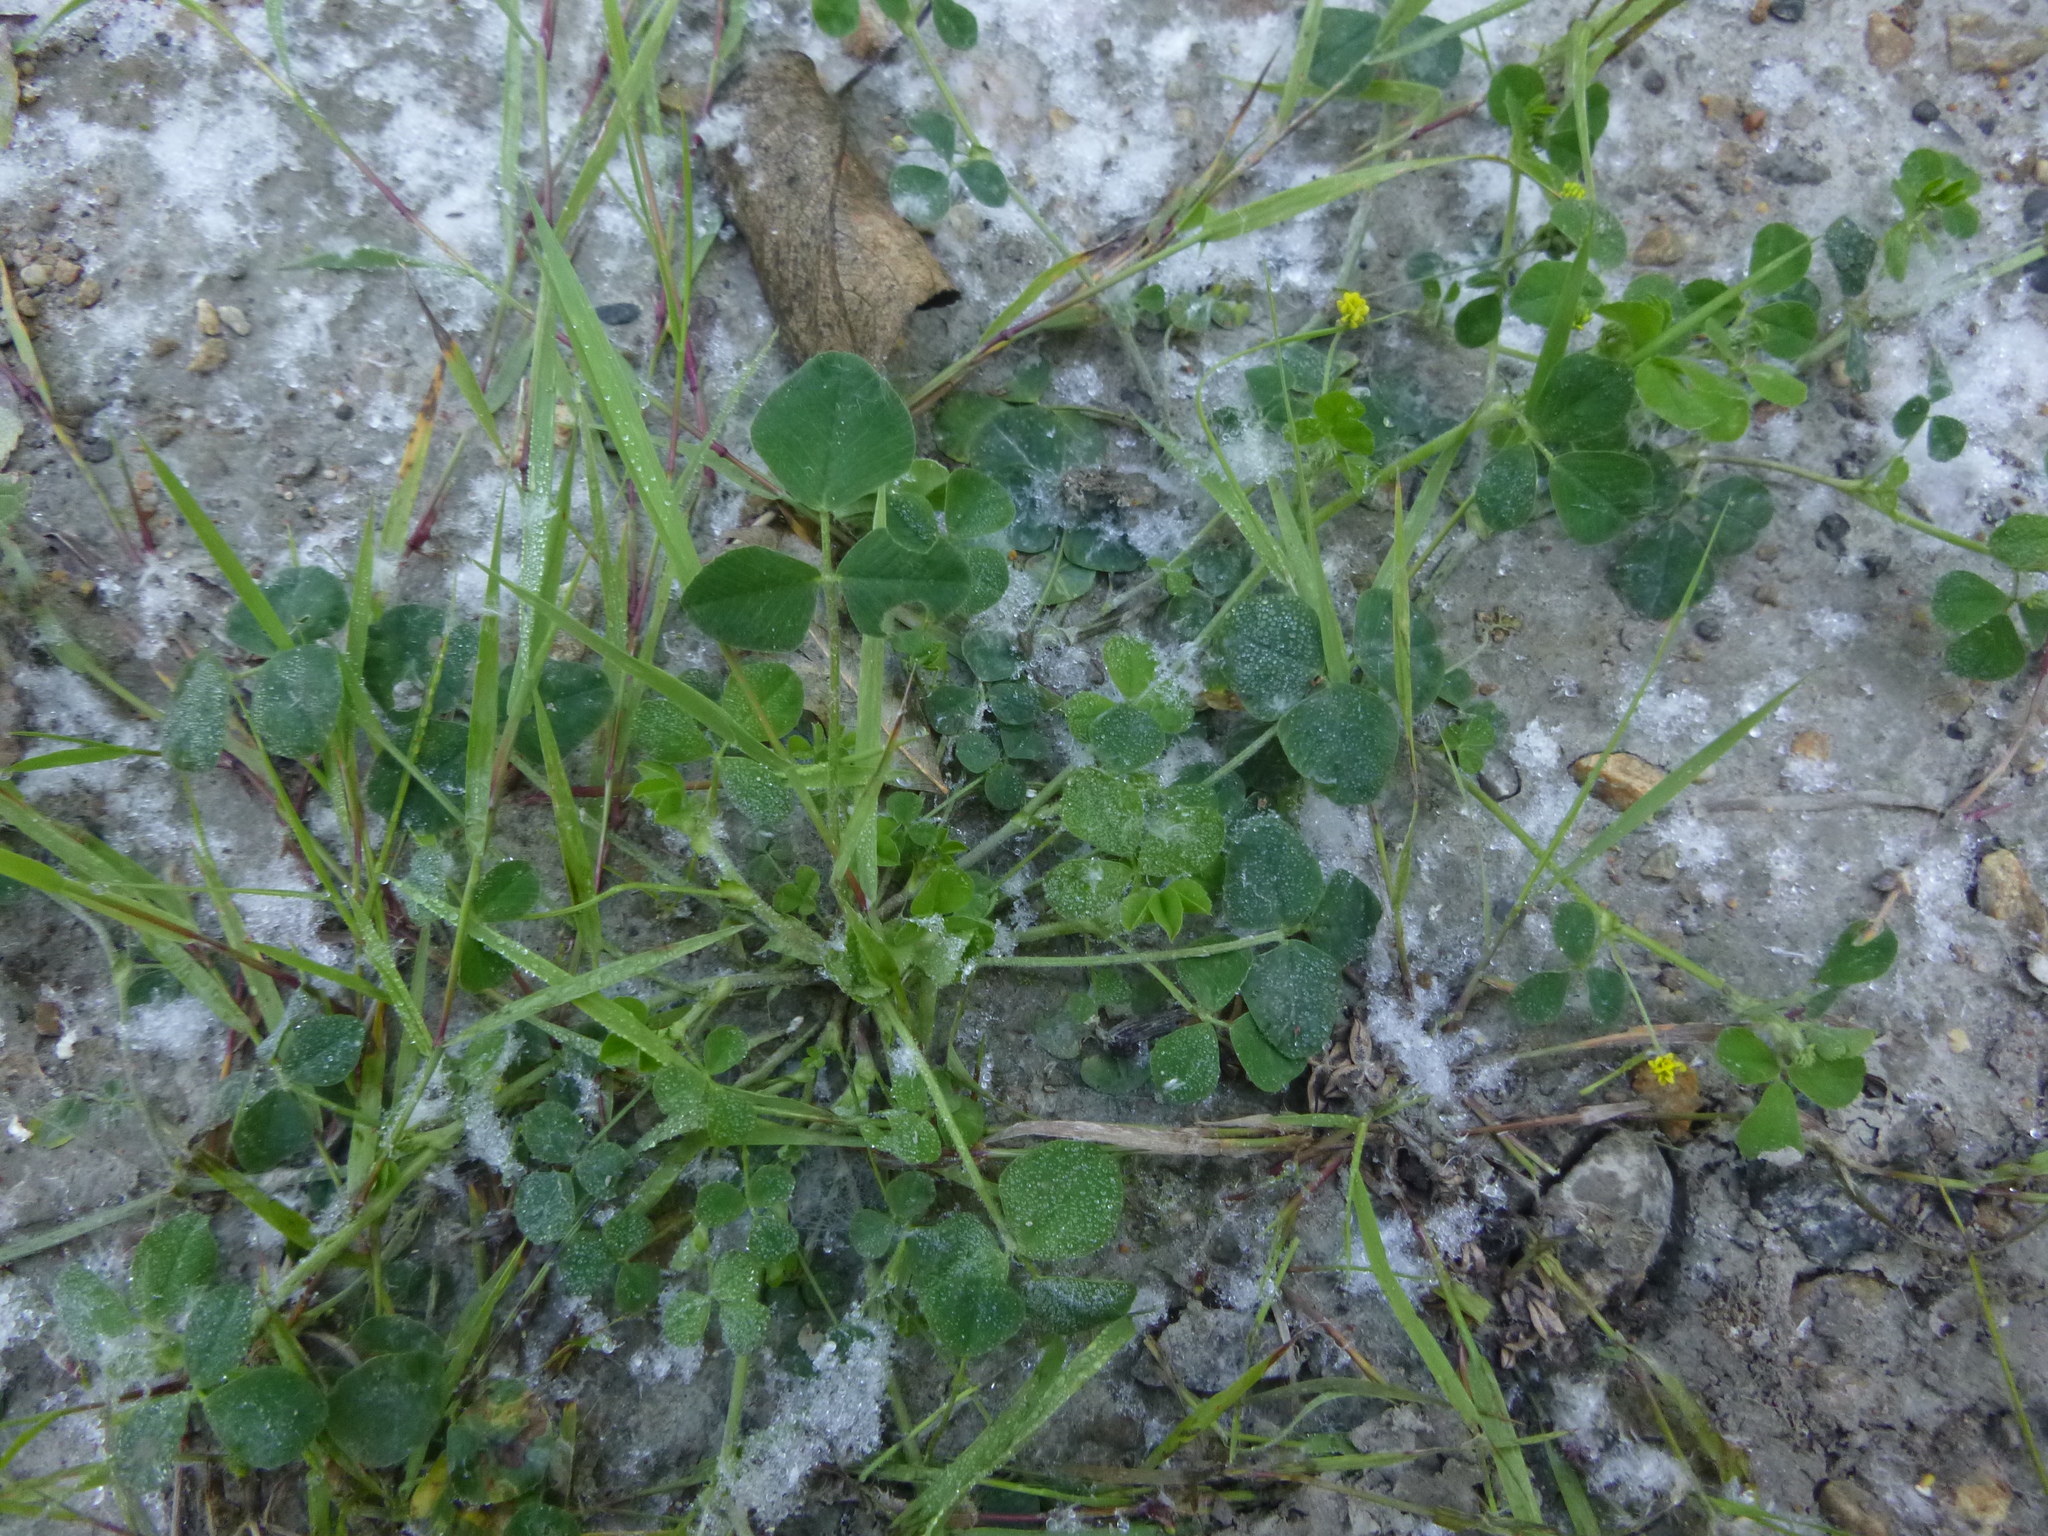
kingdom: Plantae
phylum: Tracheophyta
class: Magnoliopsida
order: Fabales
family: Fabaceae
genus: Medicago
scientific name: Medicago lupulina
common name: Black medick
